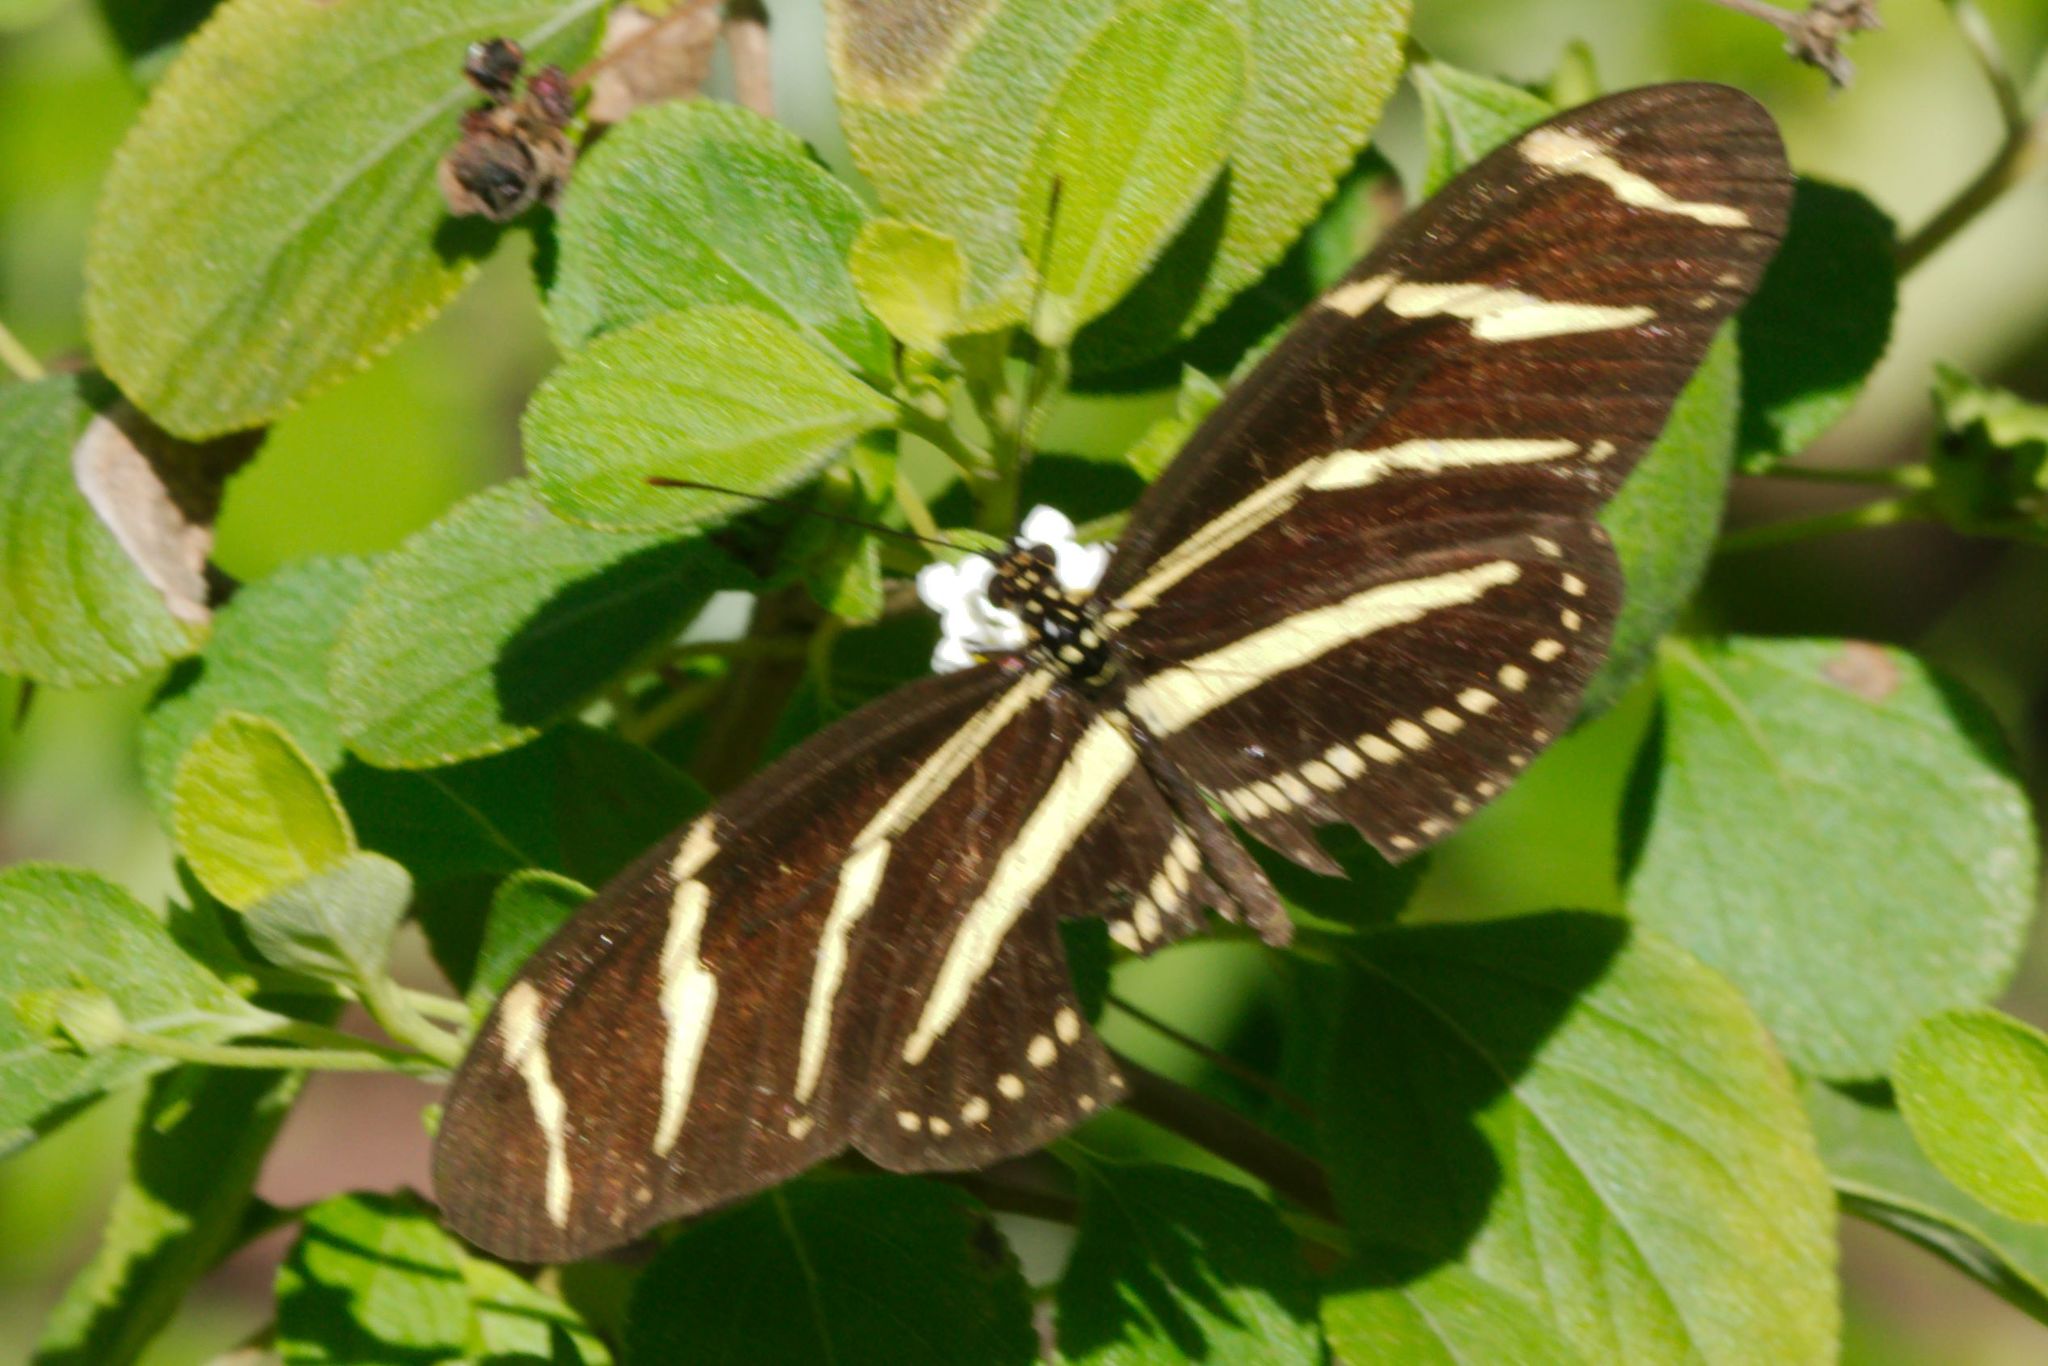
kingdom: Animalia
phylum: Arthropoda
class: Insecta
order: Lepidoptera
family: Nymphalidae
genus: Heliconius
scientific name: Heliconius charithonia
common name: Zebra long wing
